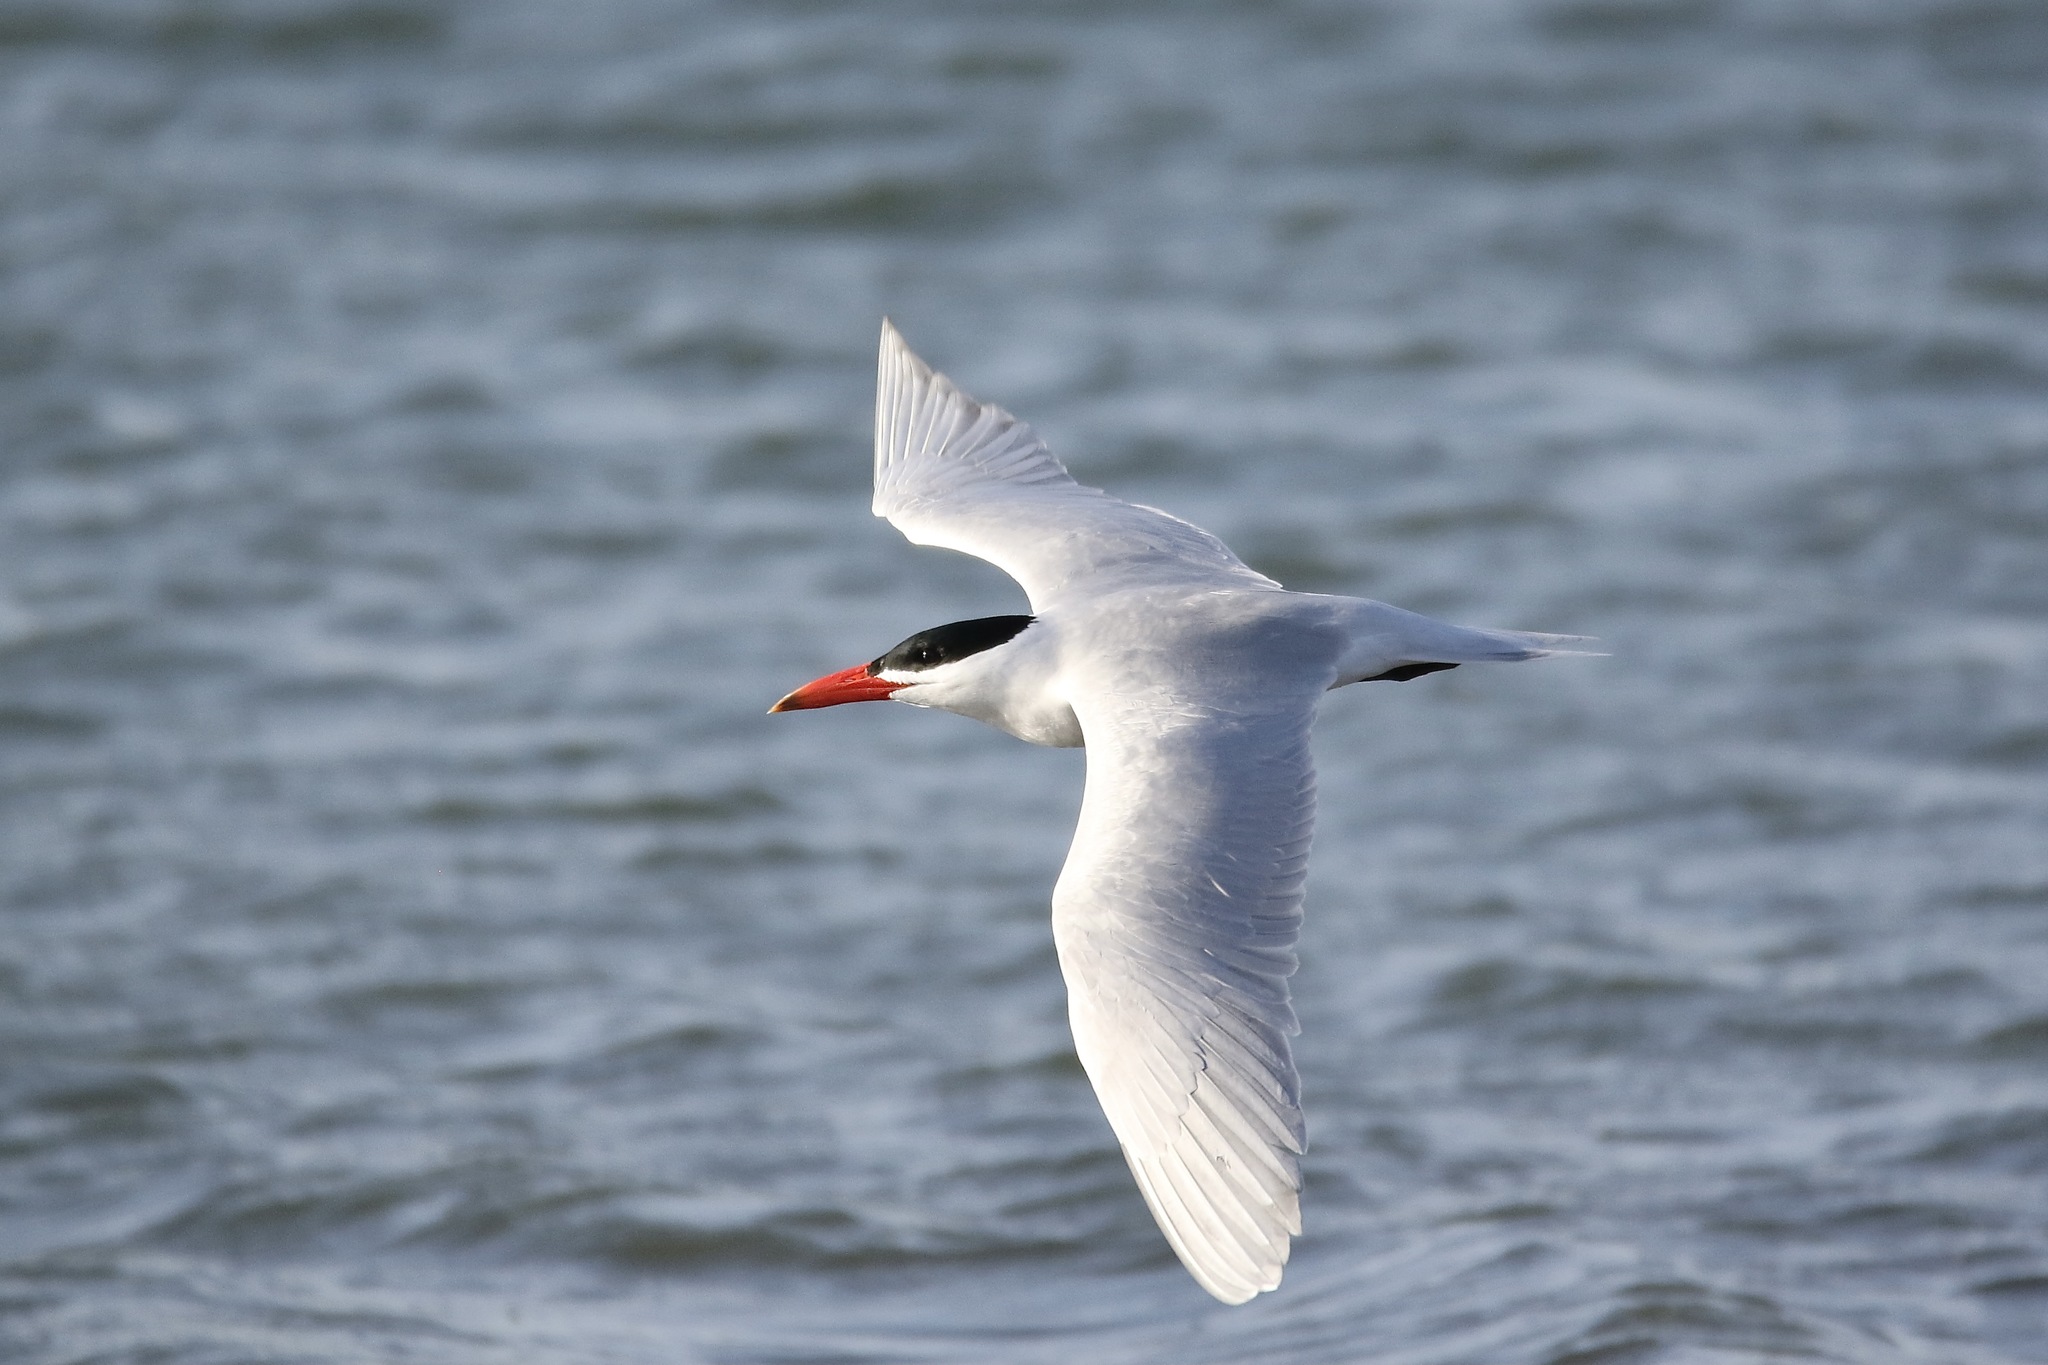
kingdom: Animalia
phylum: Chordata
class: Aves
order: Charadriiformes
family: Laridae
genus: Hydroprogne
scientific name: Hydroprogne caspia
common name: Caspian tern
